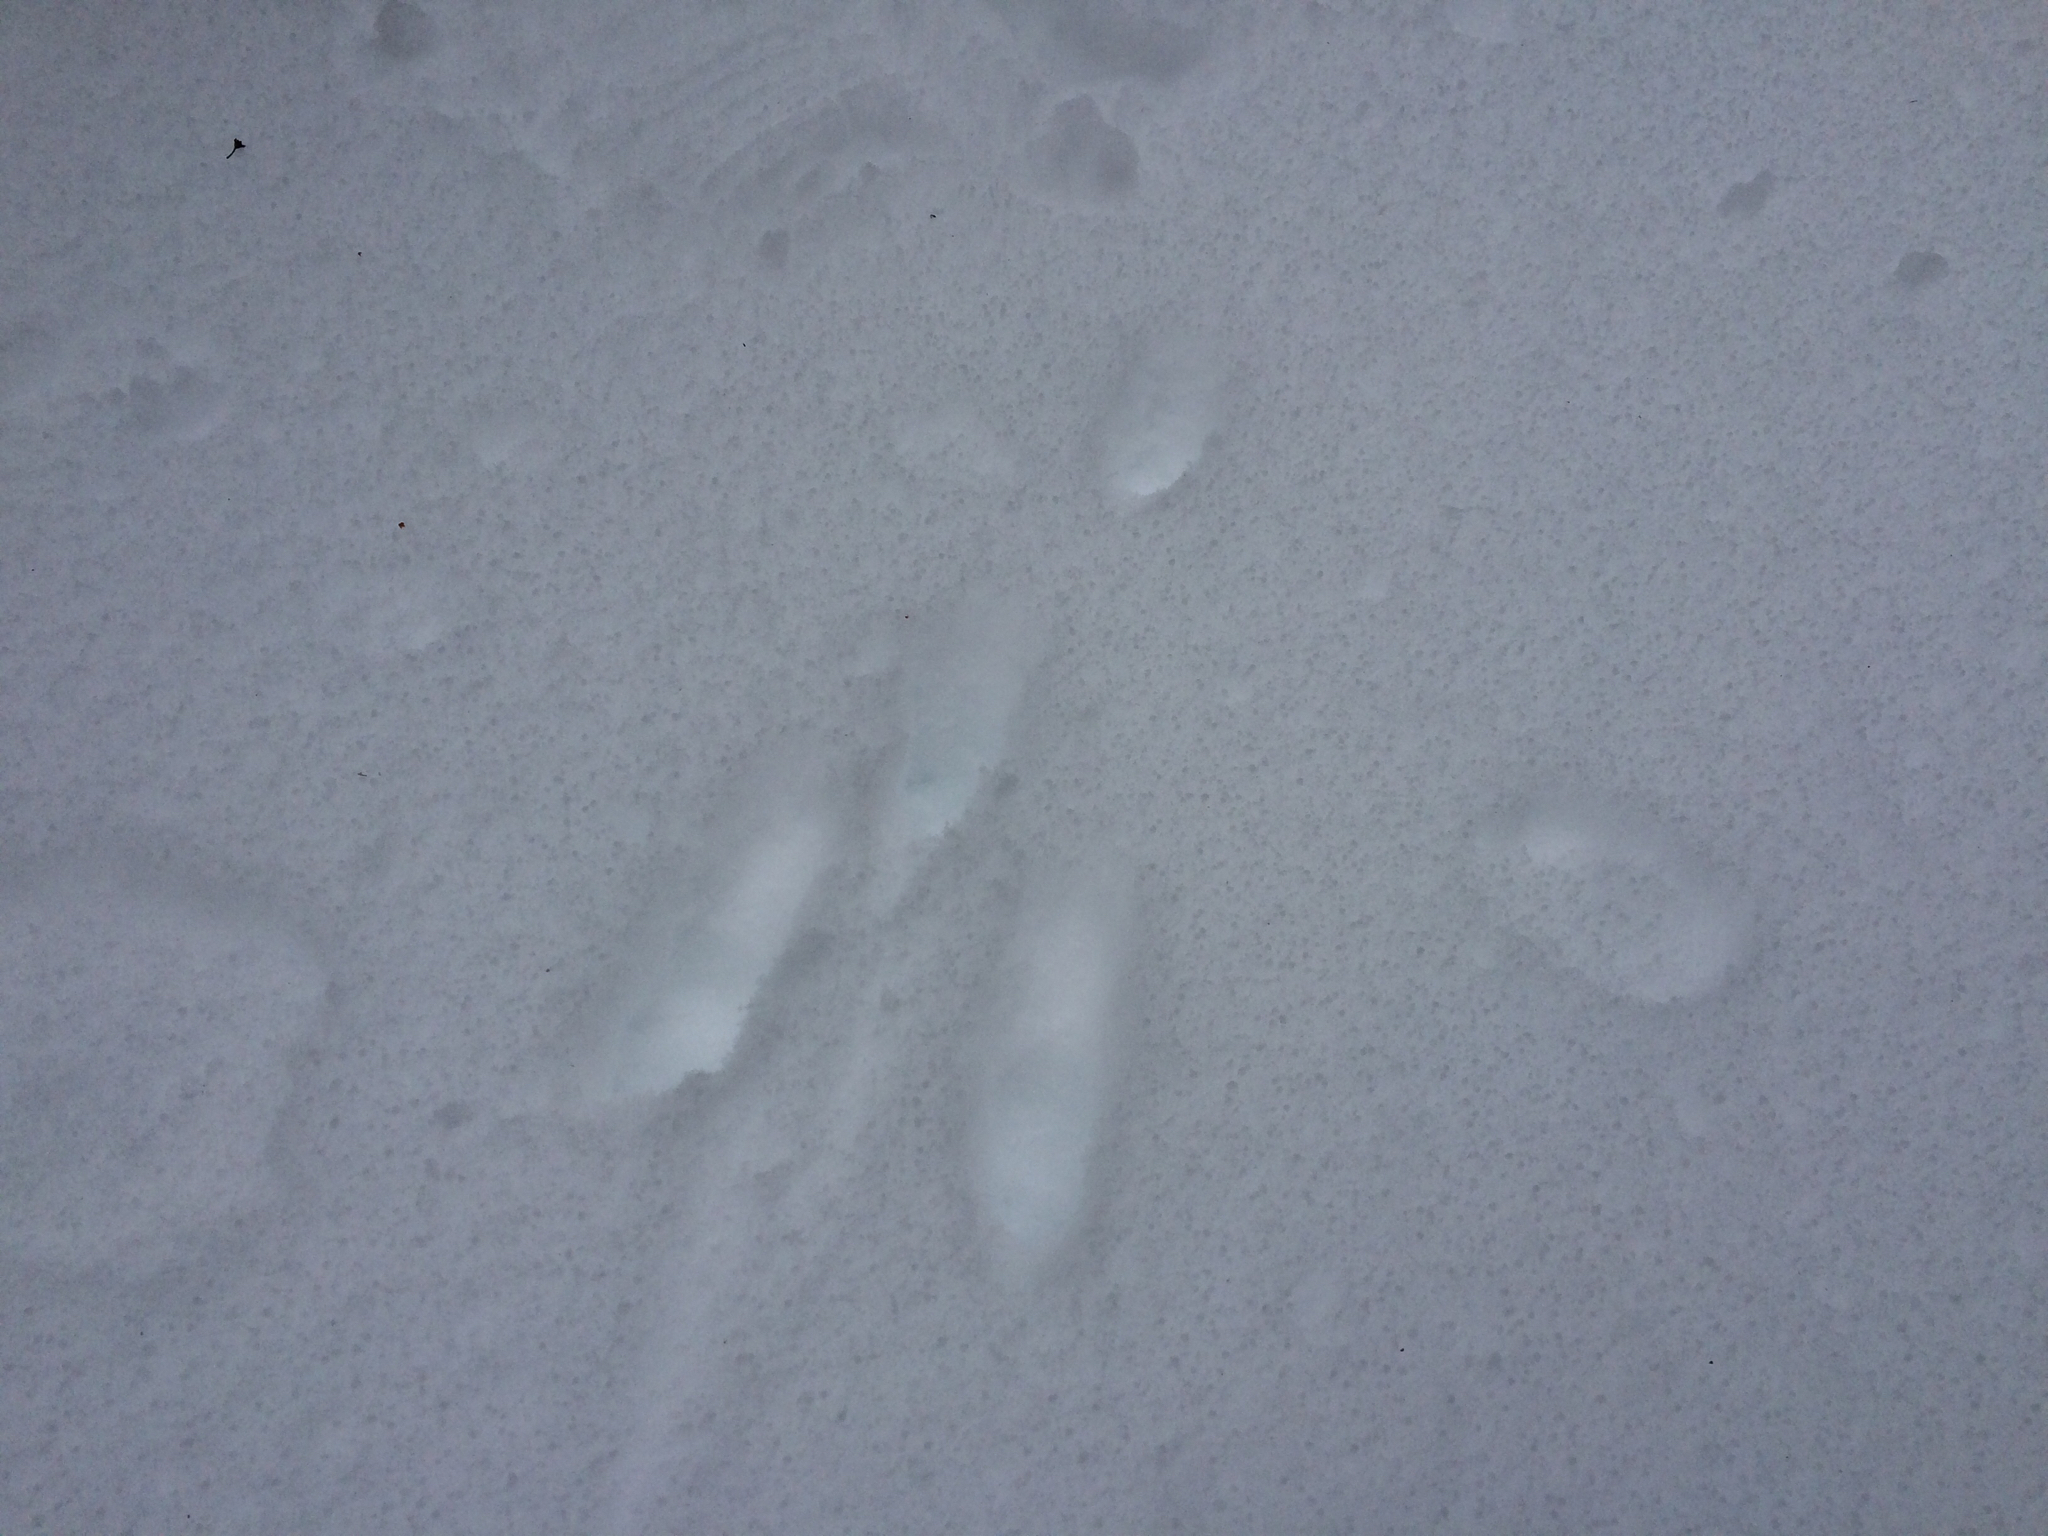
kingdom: Animalia
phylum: Chordata
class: Mammalia
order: Lagomorpha
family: Leporidae
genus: Sylvilagus
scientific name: Sylvilagus floridanus
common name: Eastern cottontail
